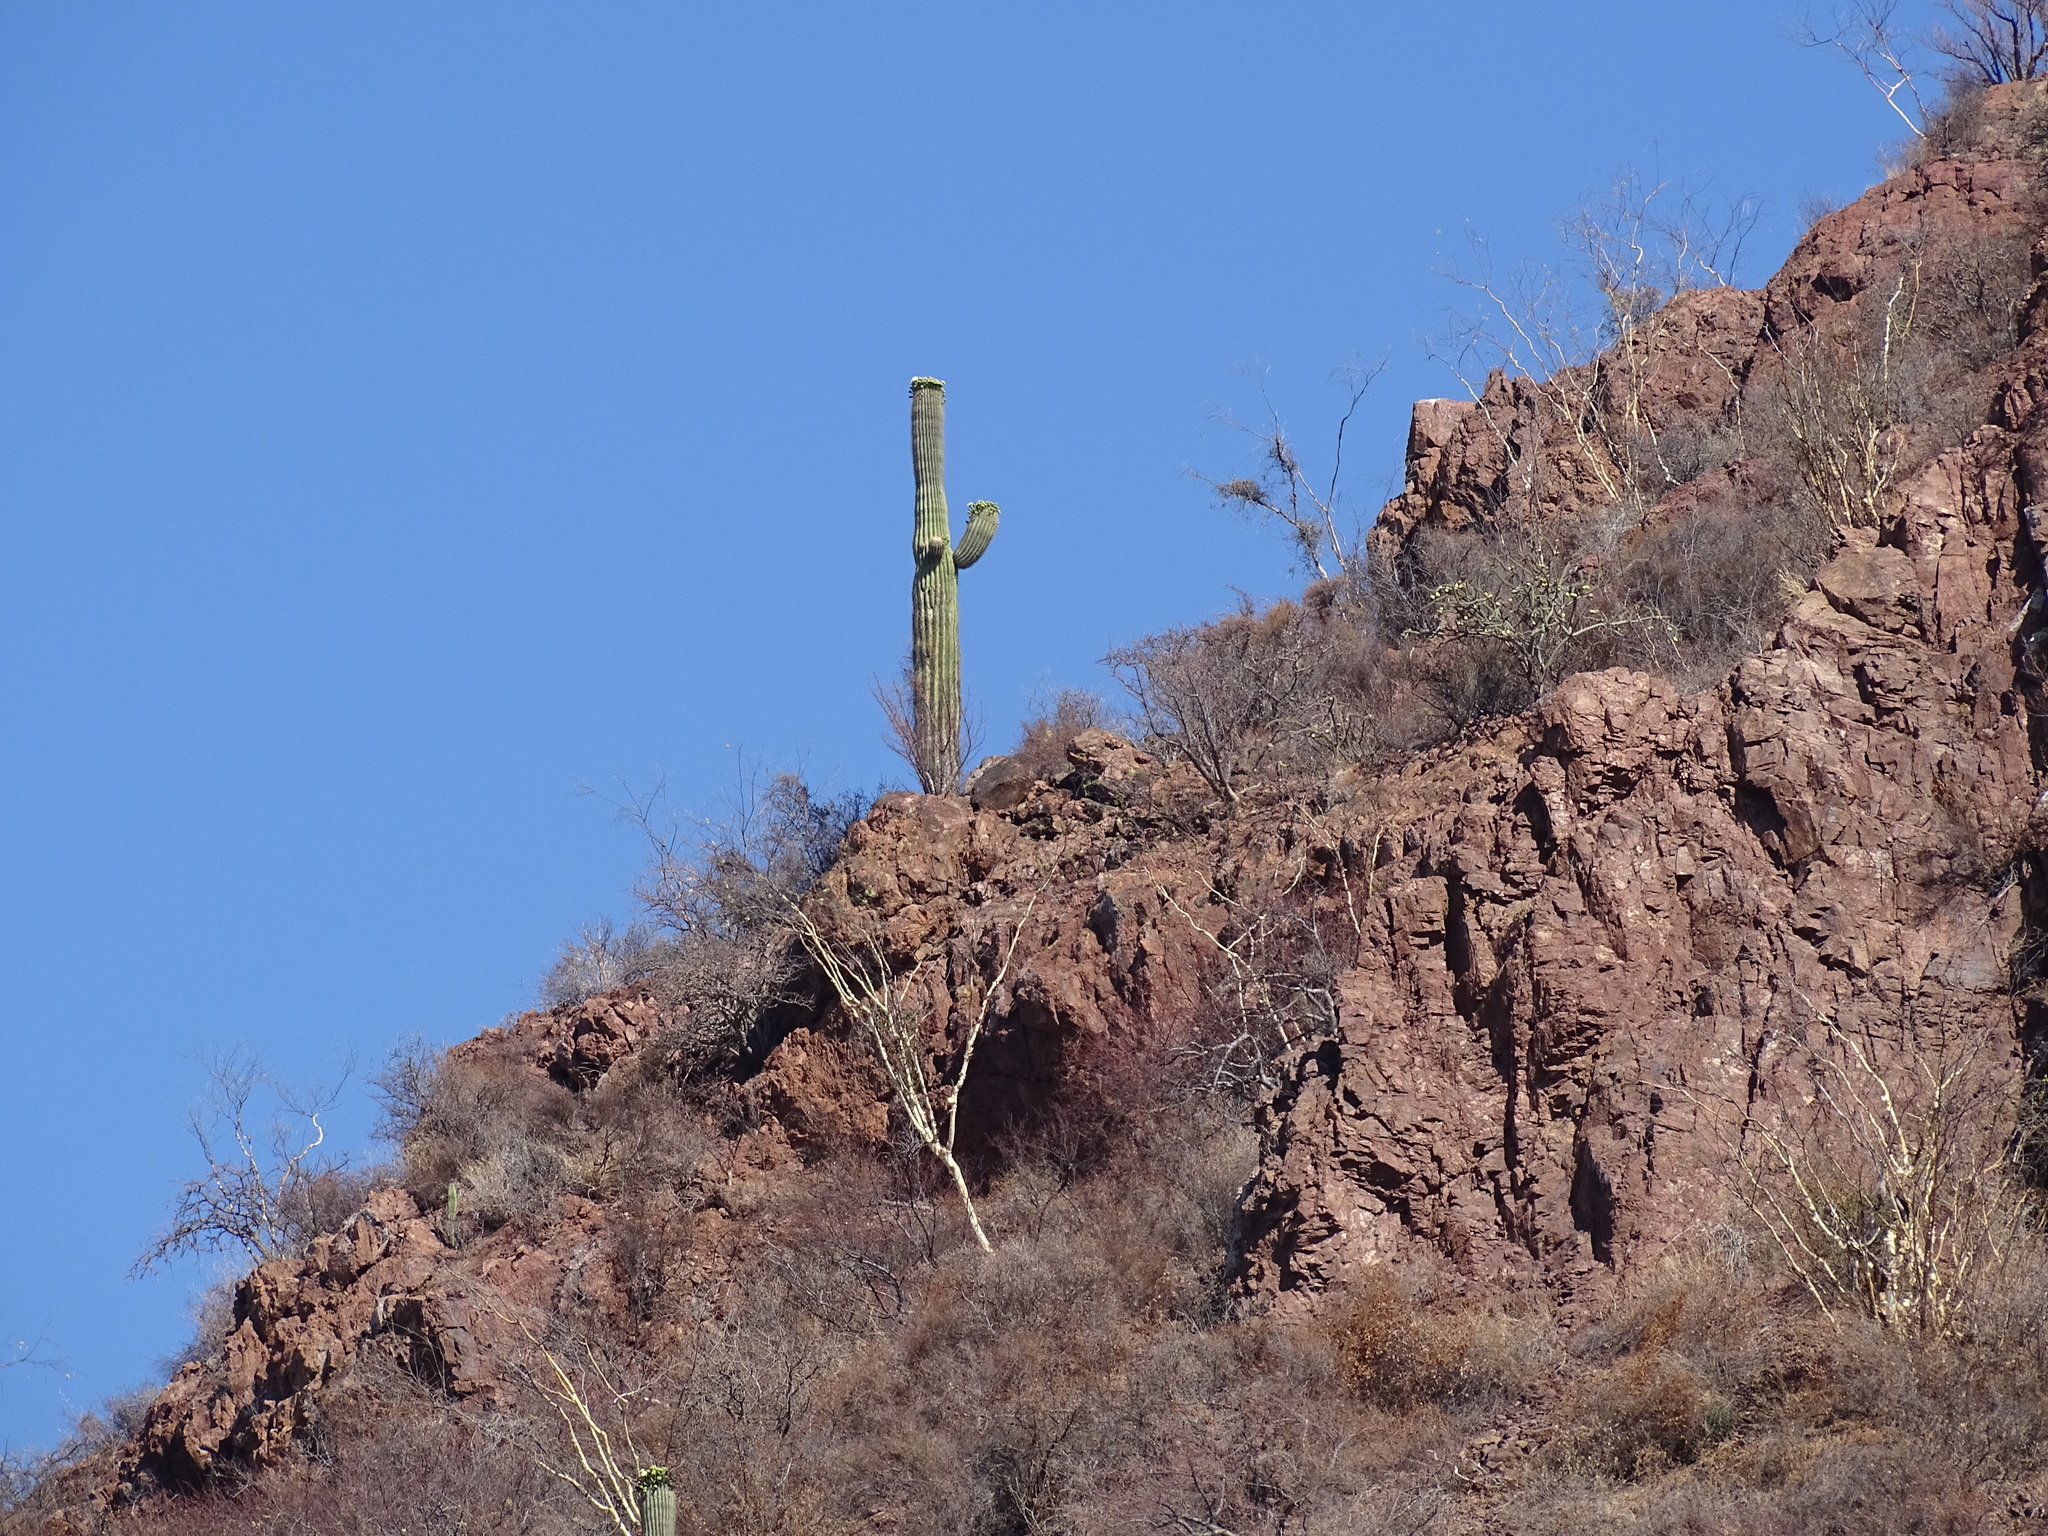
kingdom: Plantae
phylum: Tracheophyta
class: Magnoliopsida
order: Caryophyllales
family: Cactaceae
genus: Carnegiea
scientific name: Carnegiea gigantea
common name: Saguaro
